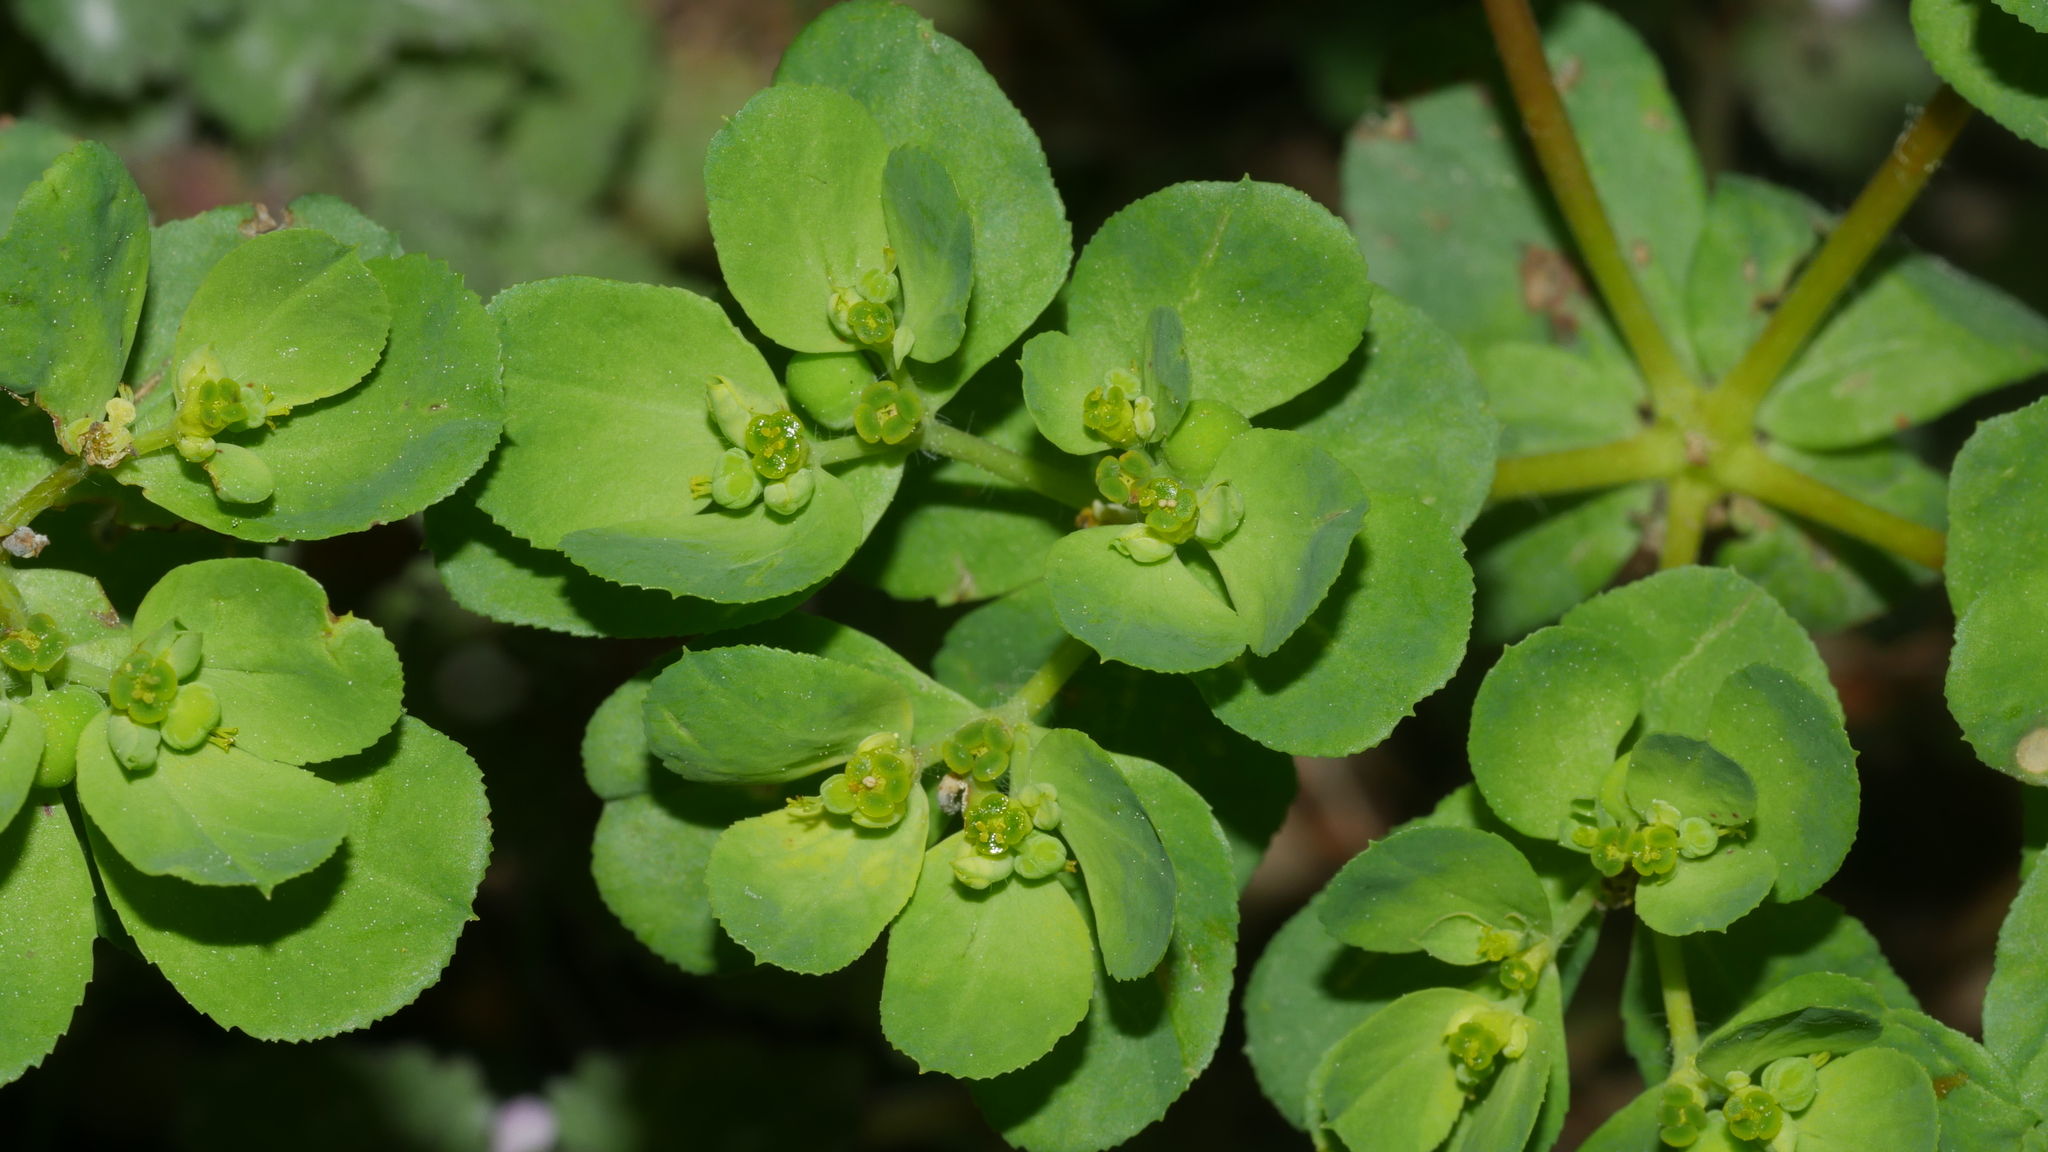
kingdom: Plantae
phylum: Tracheophyta
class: Magnoliopsida
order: Malpighiales
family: Euphorbiaceae
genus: Euphorbia
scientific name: Euphorbia helioscopia
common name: Sun spurge
